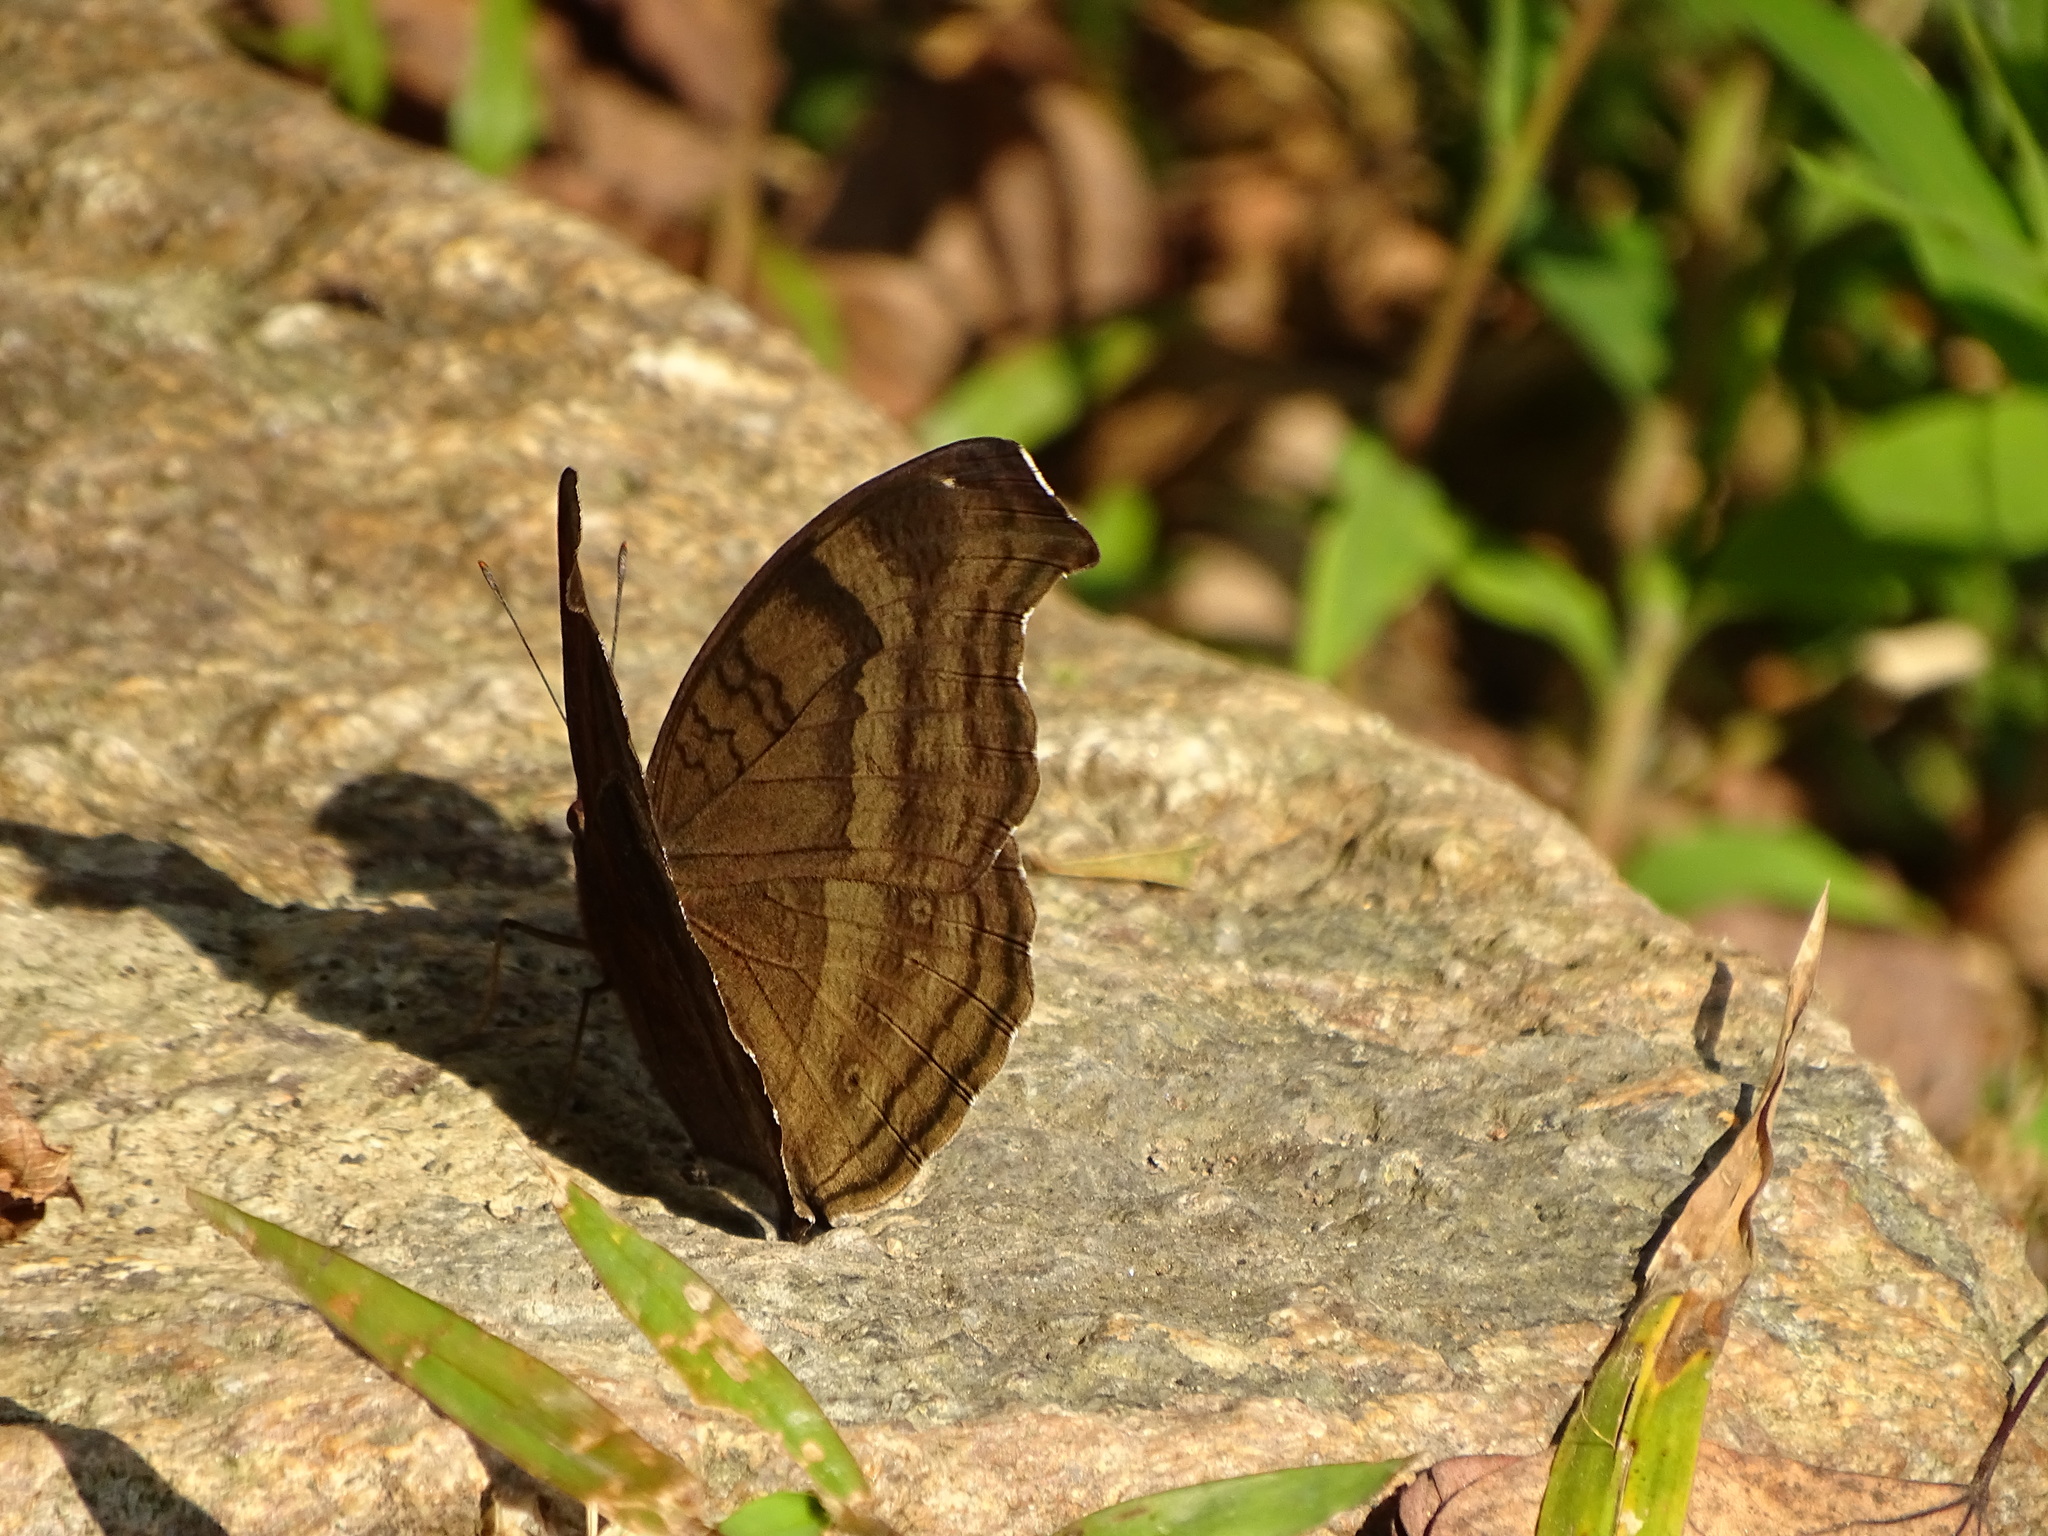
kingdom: Animalia
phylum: Arthropoda
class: Insecta
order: Lepidoptera
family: Nymphalidae
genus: Junonia
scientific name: Junonia iphita
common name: Chocolate pansy
